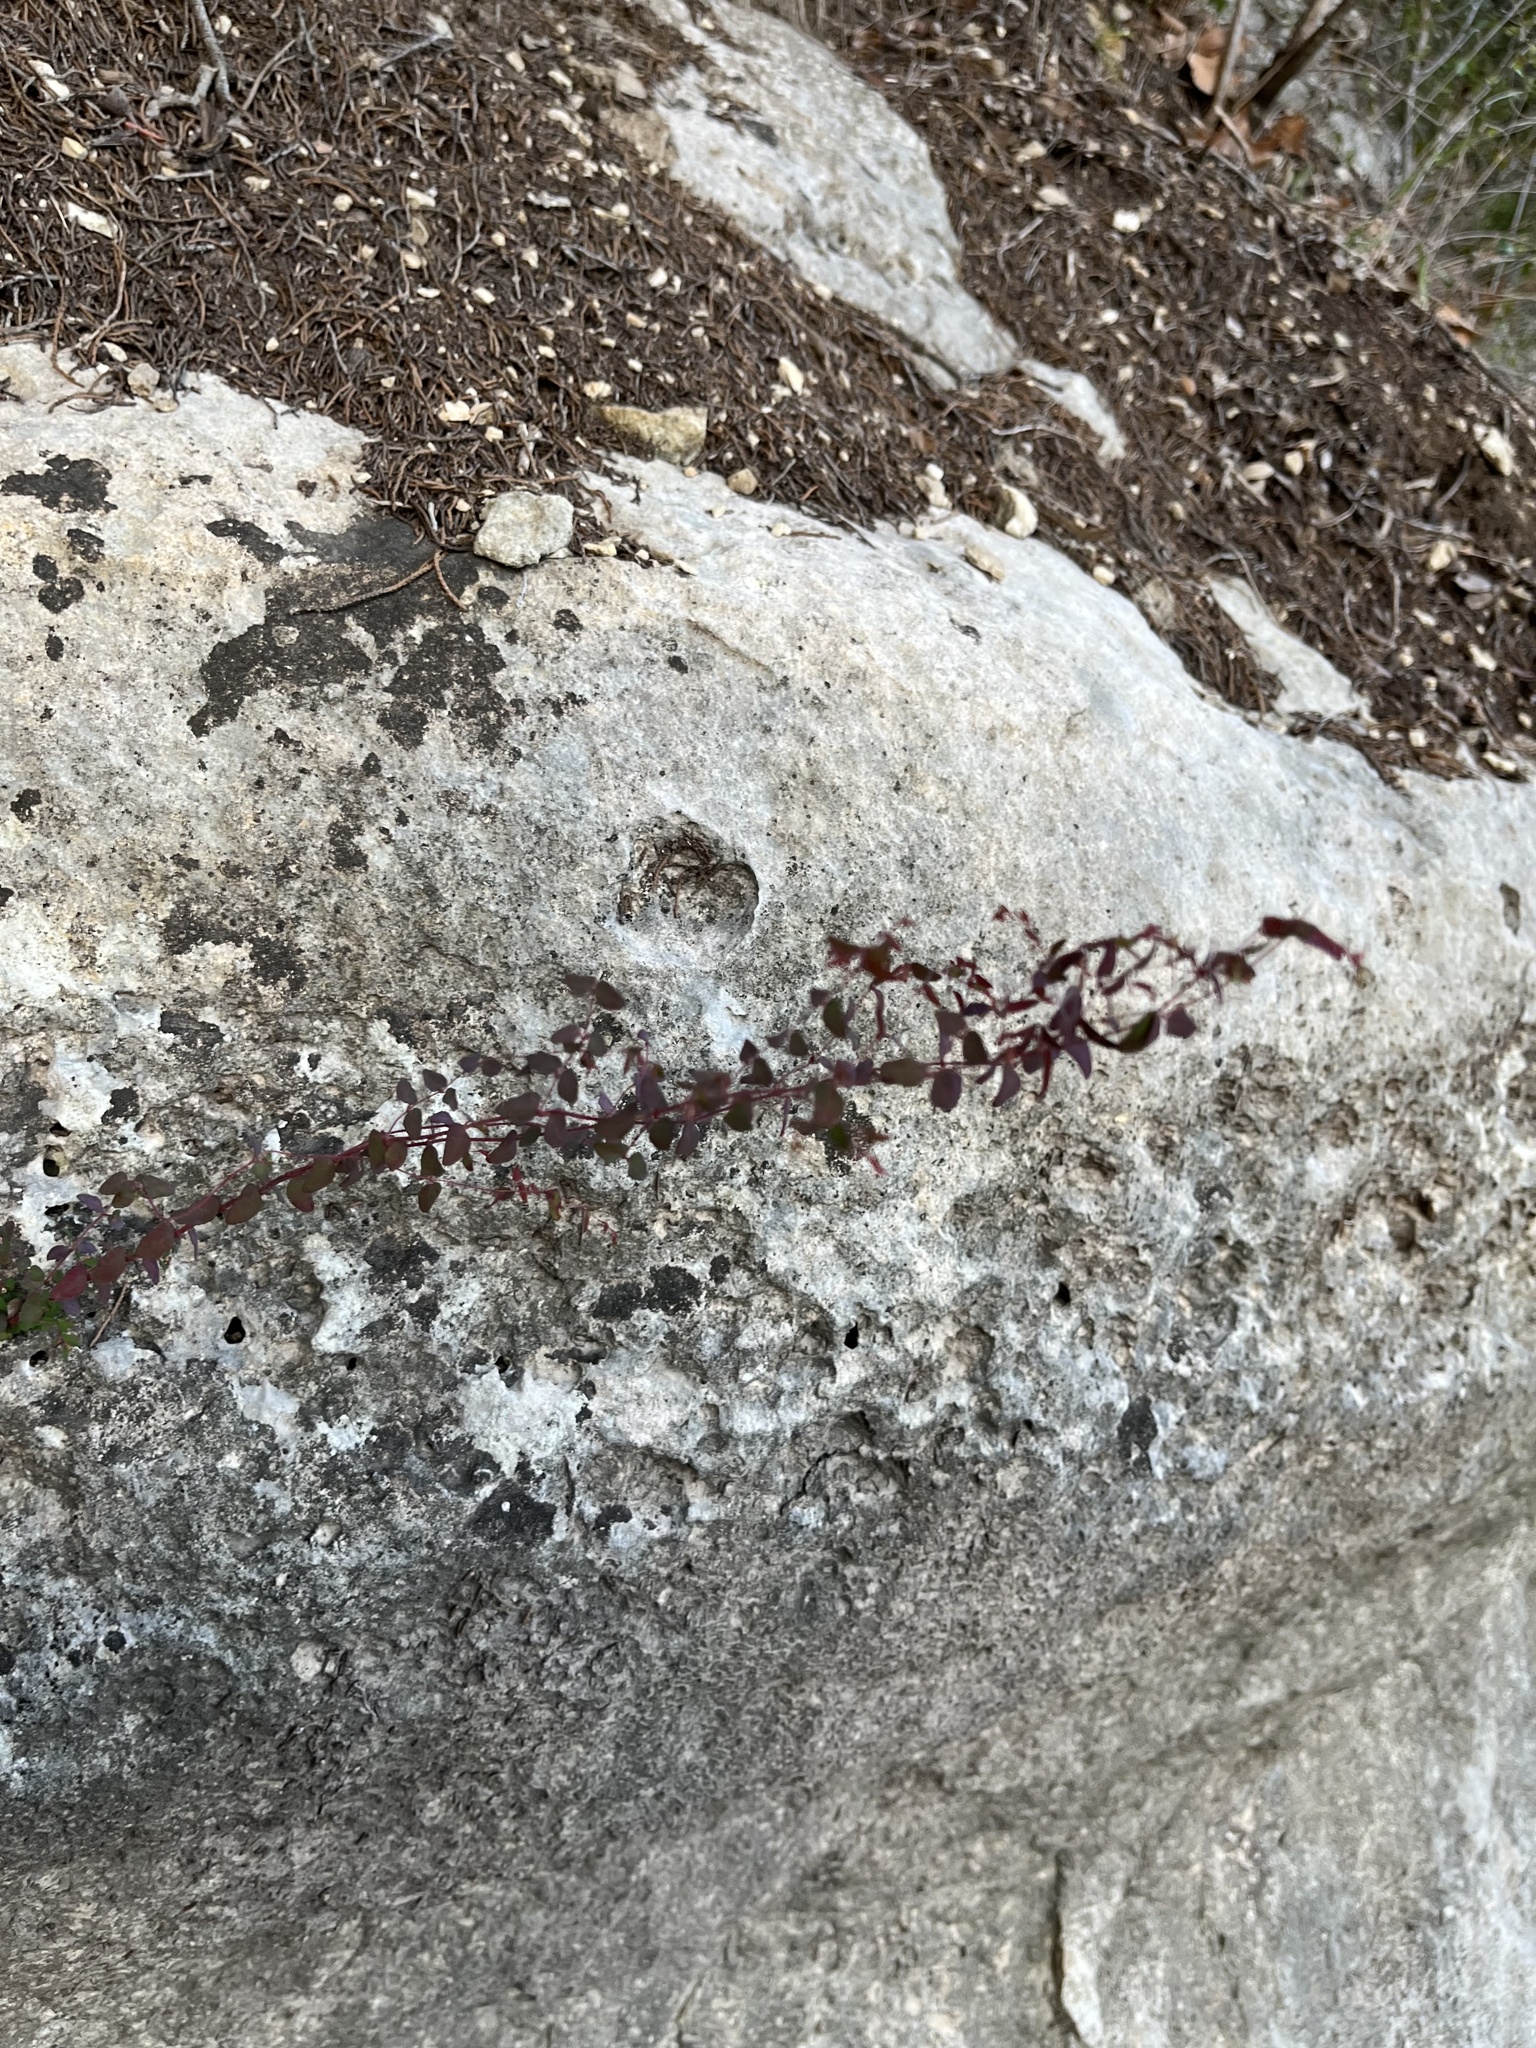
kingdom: Plantae
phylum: Tracheophyta
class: Magnoliopsida
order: Malpighiales
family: Euphorbiaceae
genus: Euphorbia
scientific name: Euphorbia villifera
